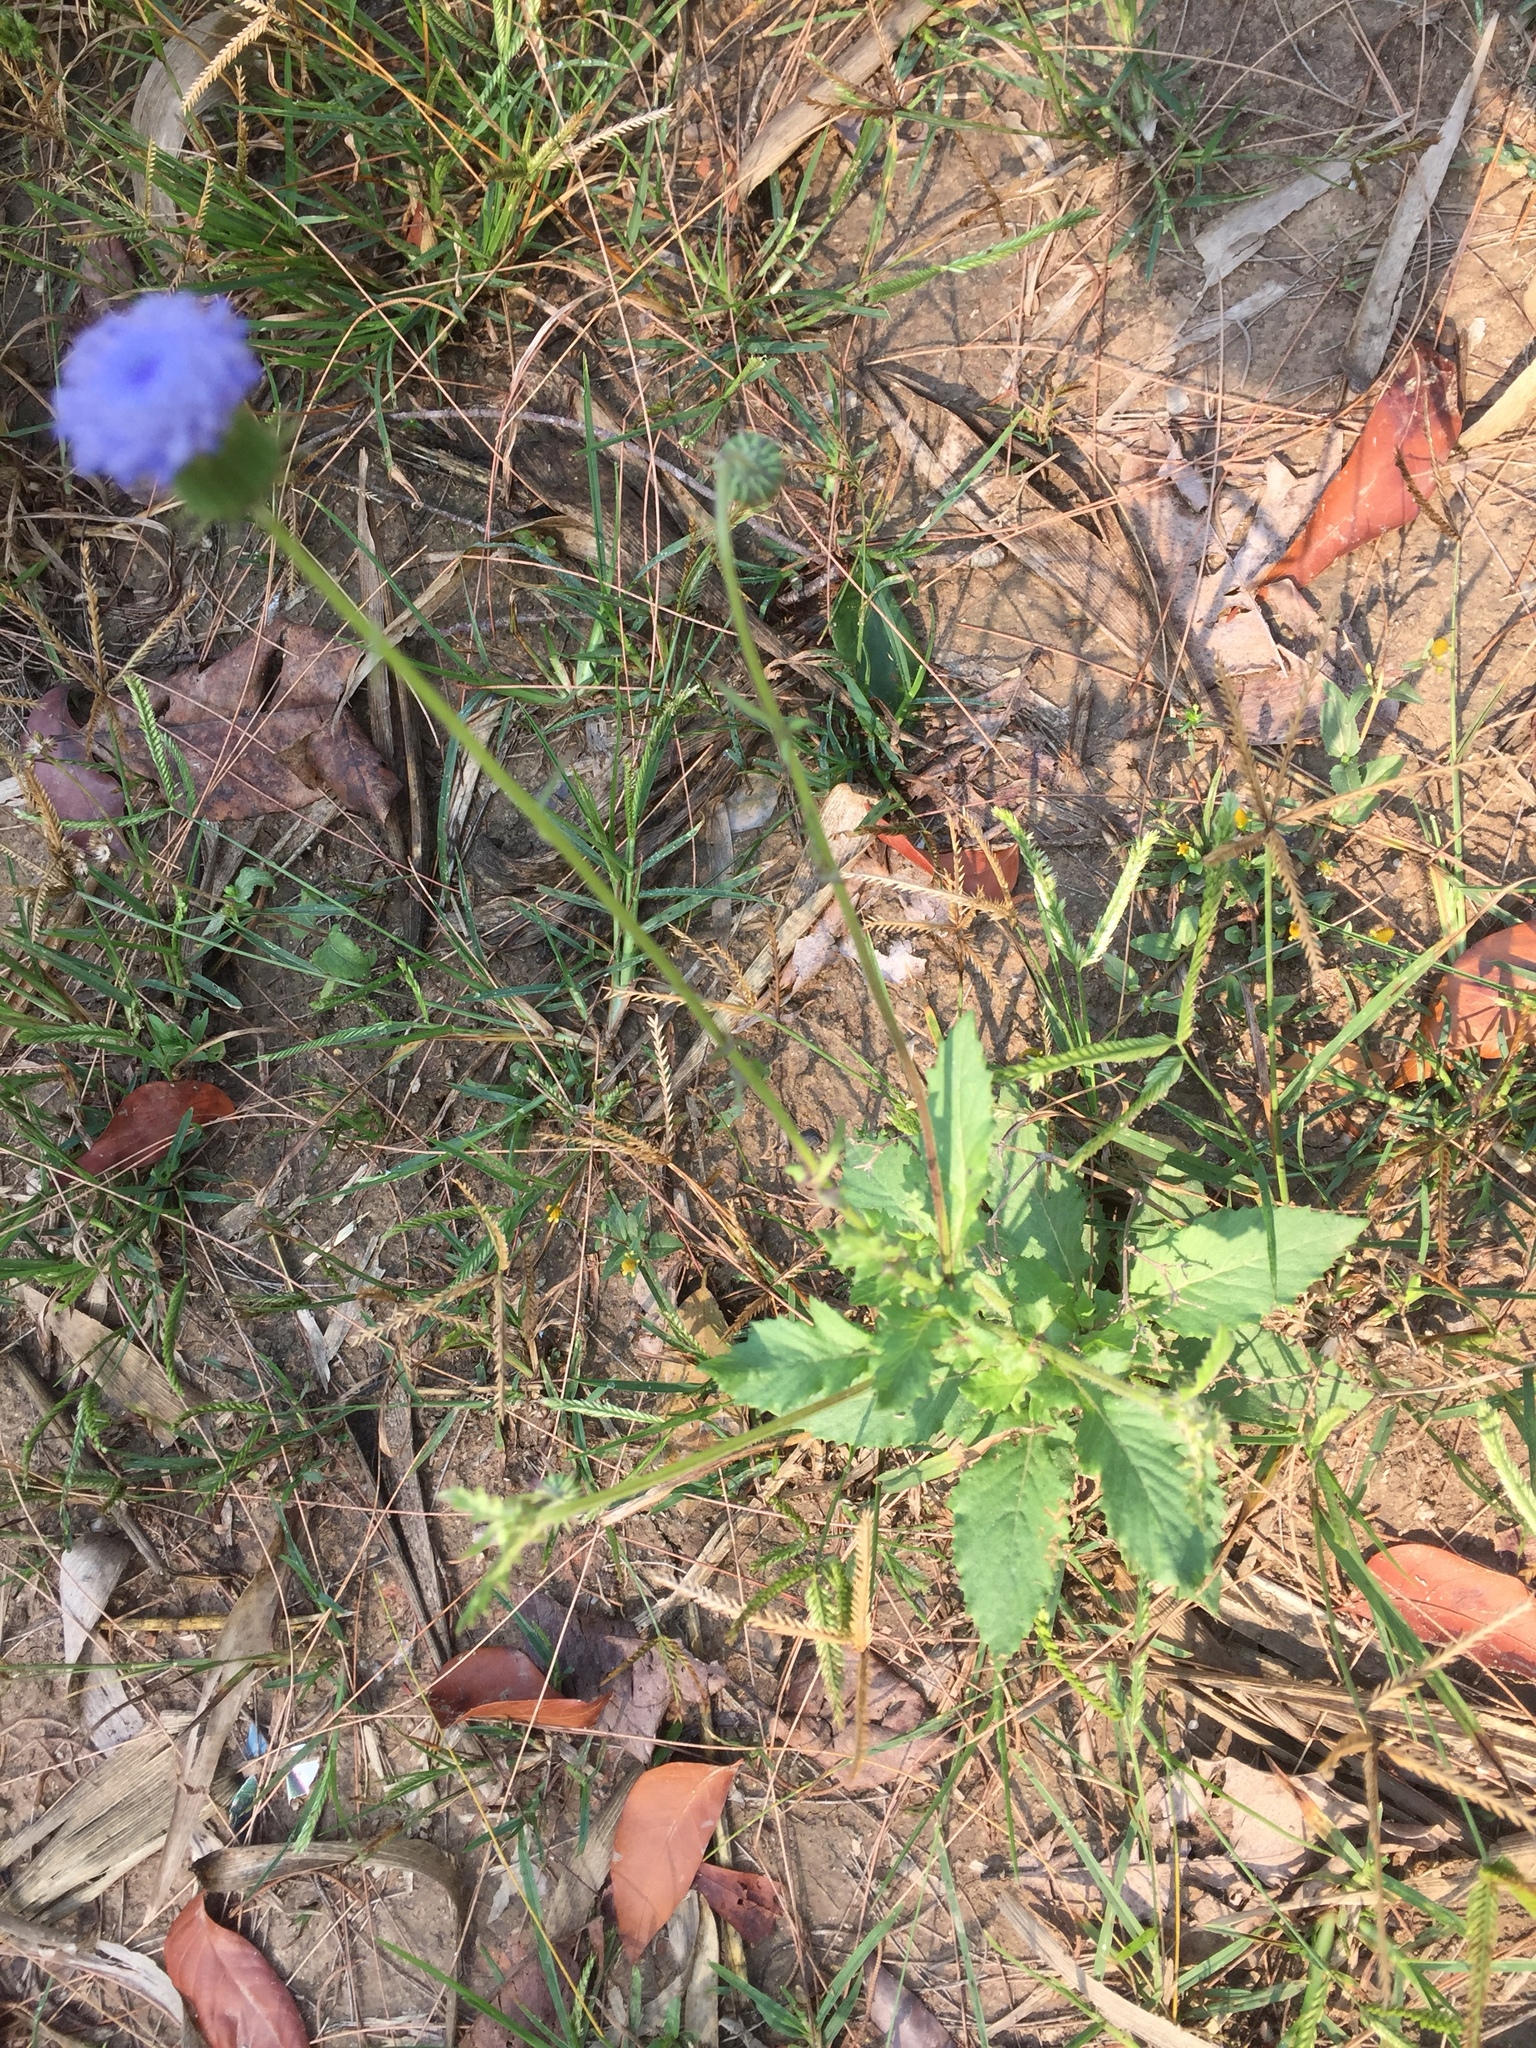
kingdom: Plantae
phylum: Tracheophyta
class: Magnoliopsida
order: Asterales
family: Asteraceae
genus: Crassocephalum
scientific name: Crassocephalum rubens
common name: Yoruban bologi
